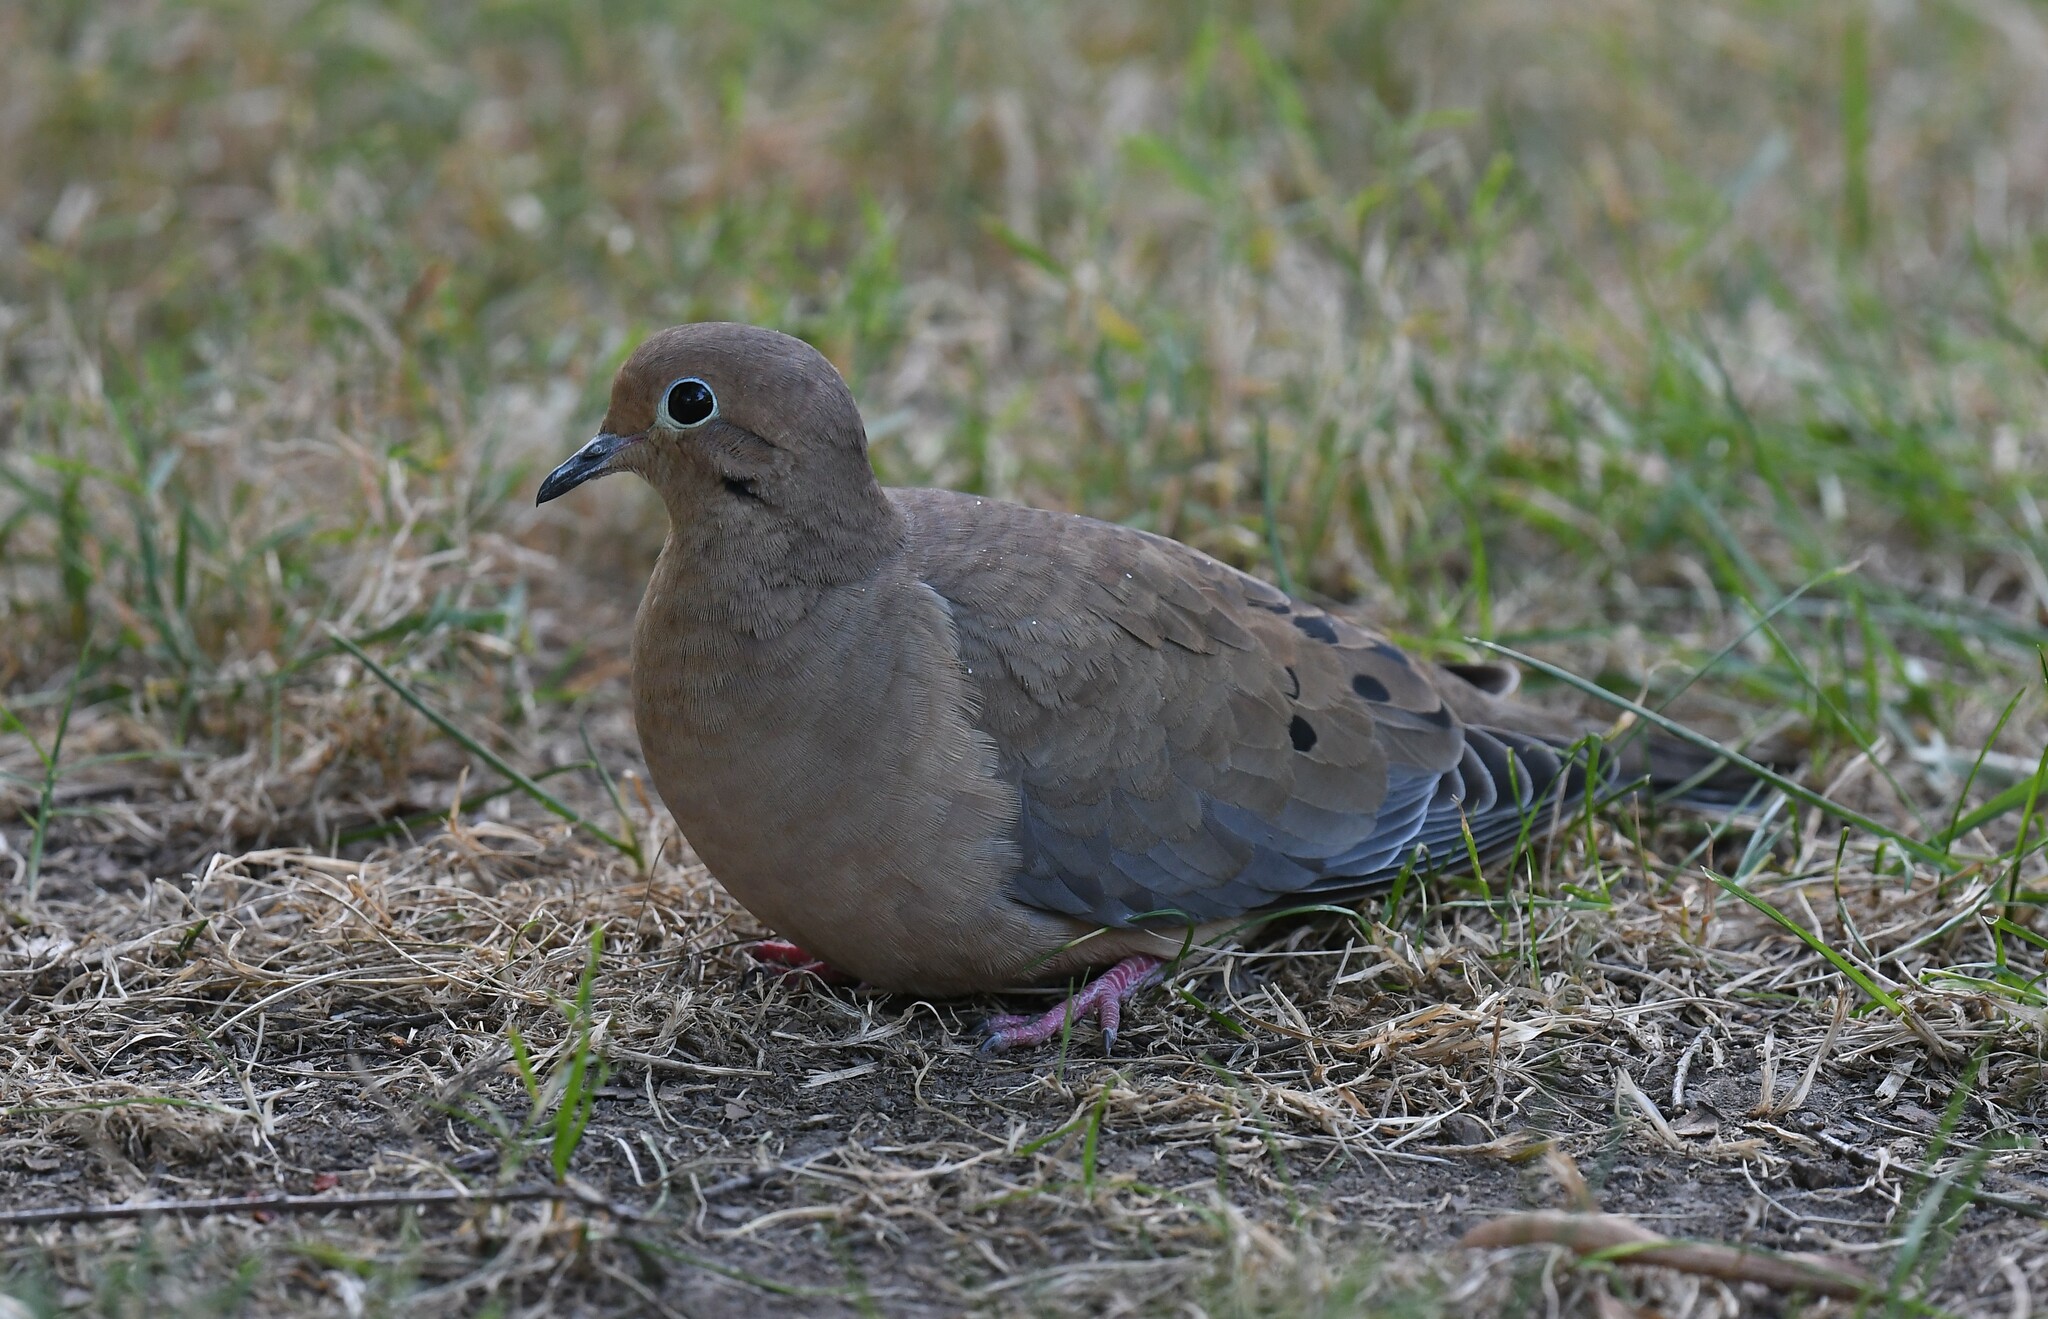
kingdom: Animalia
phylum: Chordata
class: Aves
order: Columbiformes
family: Columbidae
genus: Zenaida
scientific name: Zenaida macroura
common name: Mourning dove
